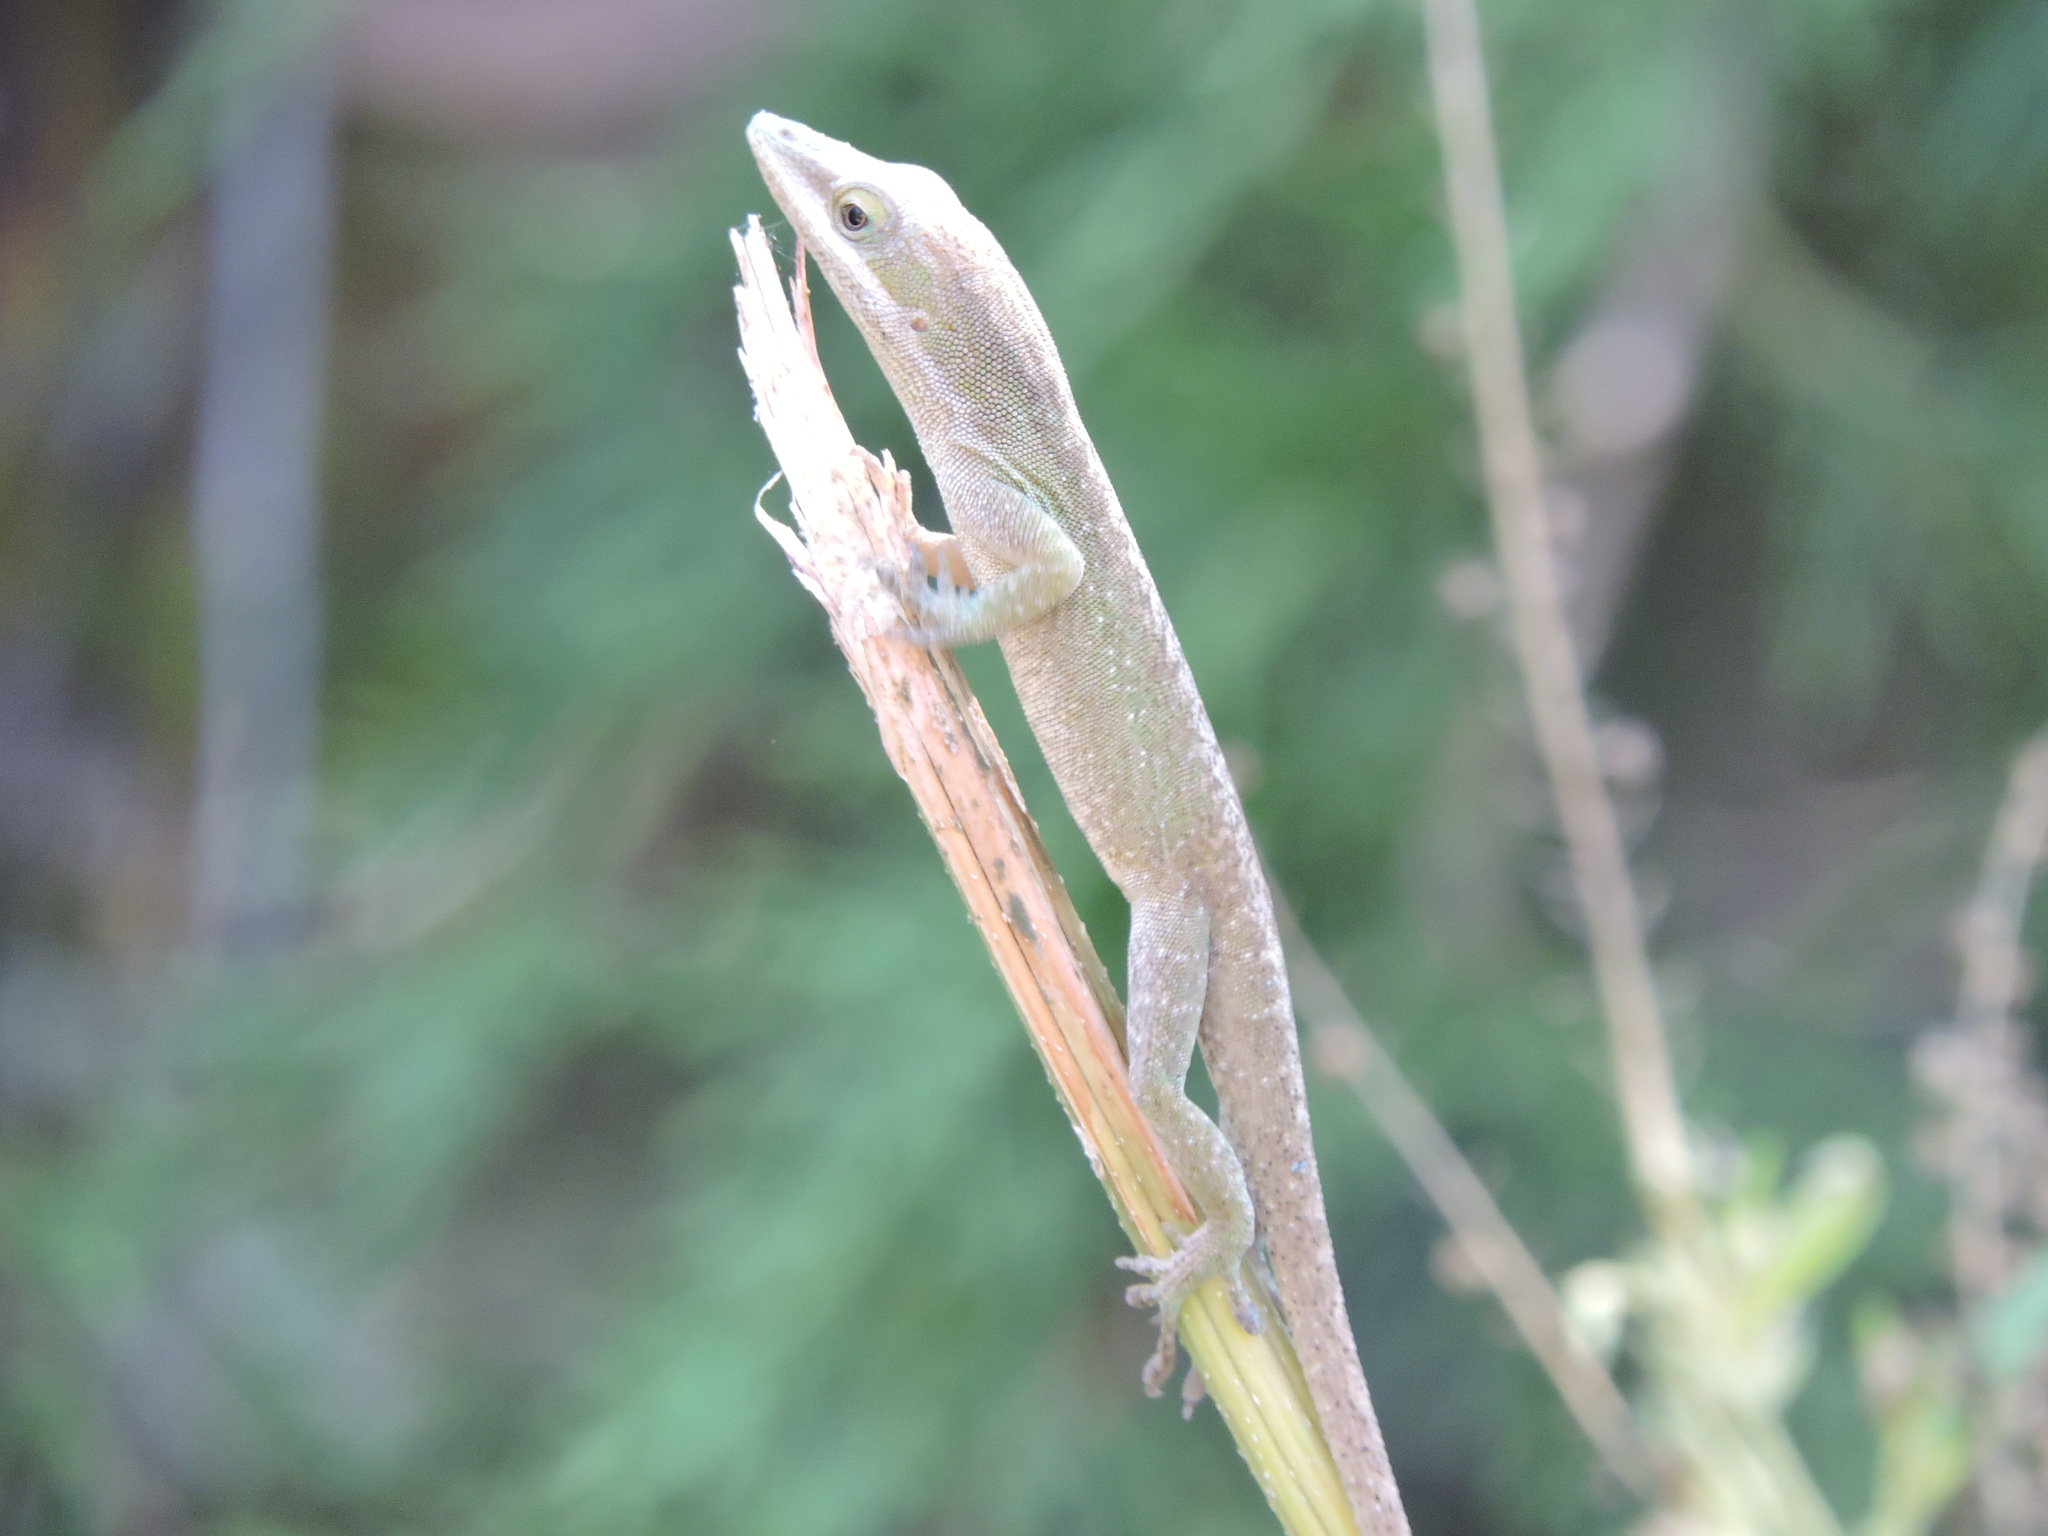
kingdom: Animalia
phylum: Chordata
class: Squamata
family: Dactyloidae
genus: Anolis
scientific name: Anolis carolinensis
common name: Green anole
